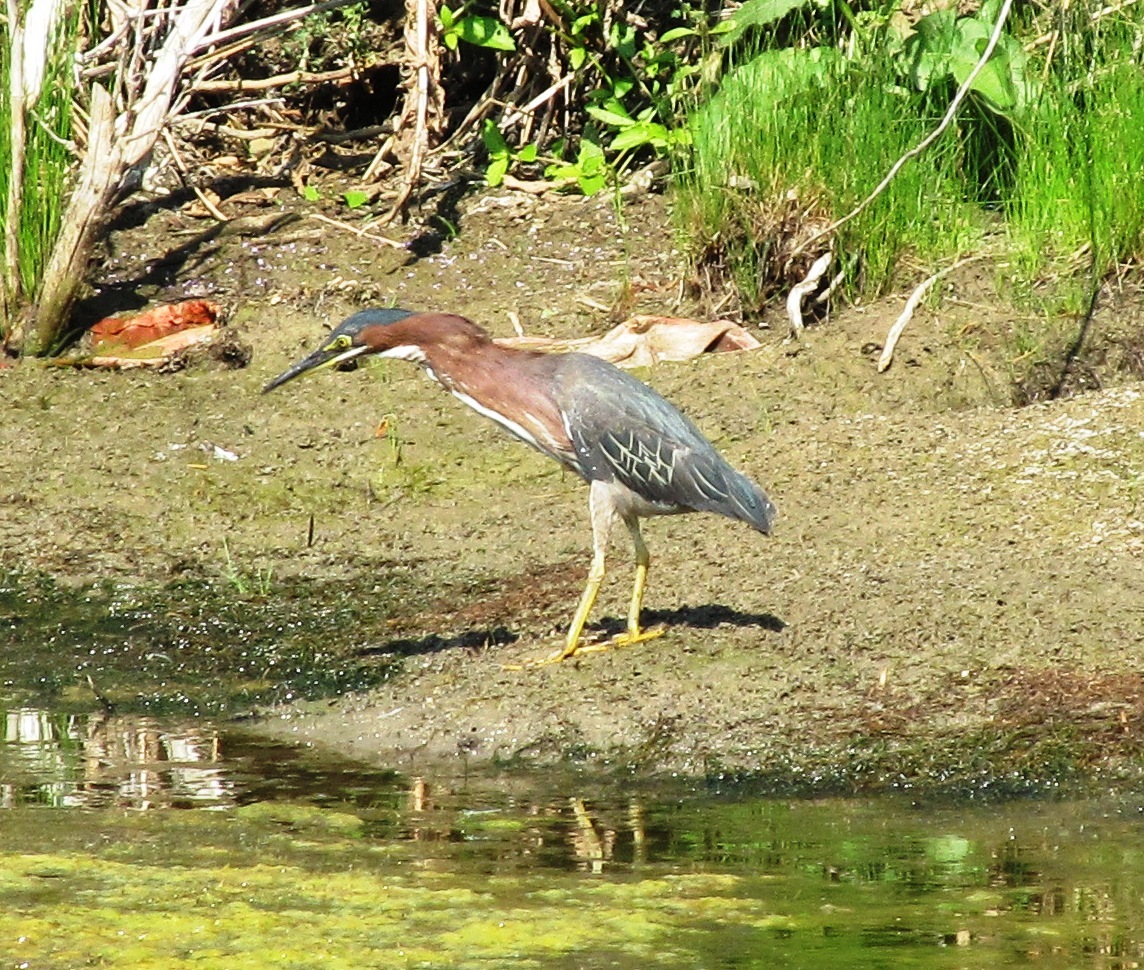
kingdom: Animalia
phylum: Chordata
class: Aves
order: Pelecaniformes
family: Ardeidae
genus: Butorides
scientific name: Butorides virescens
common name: Green heron
